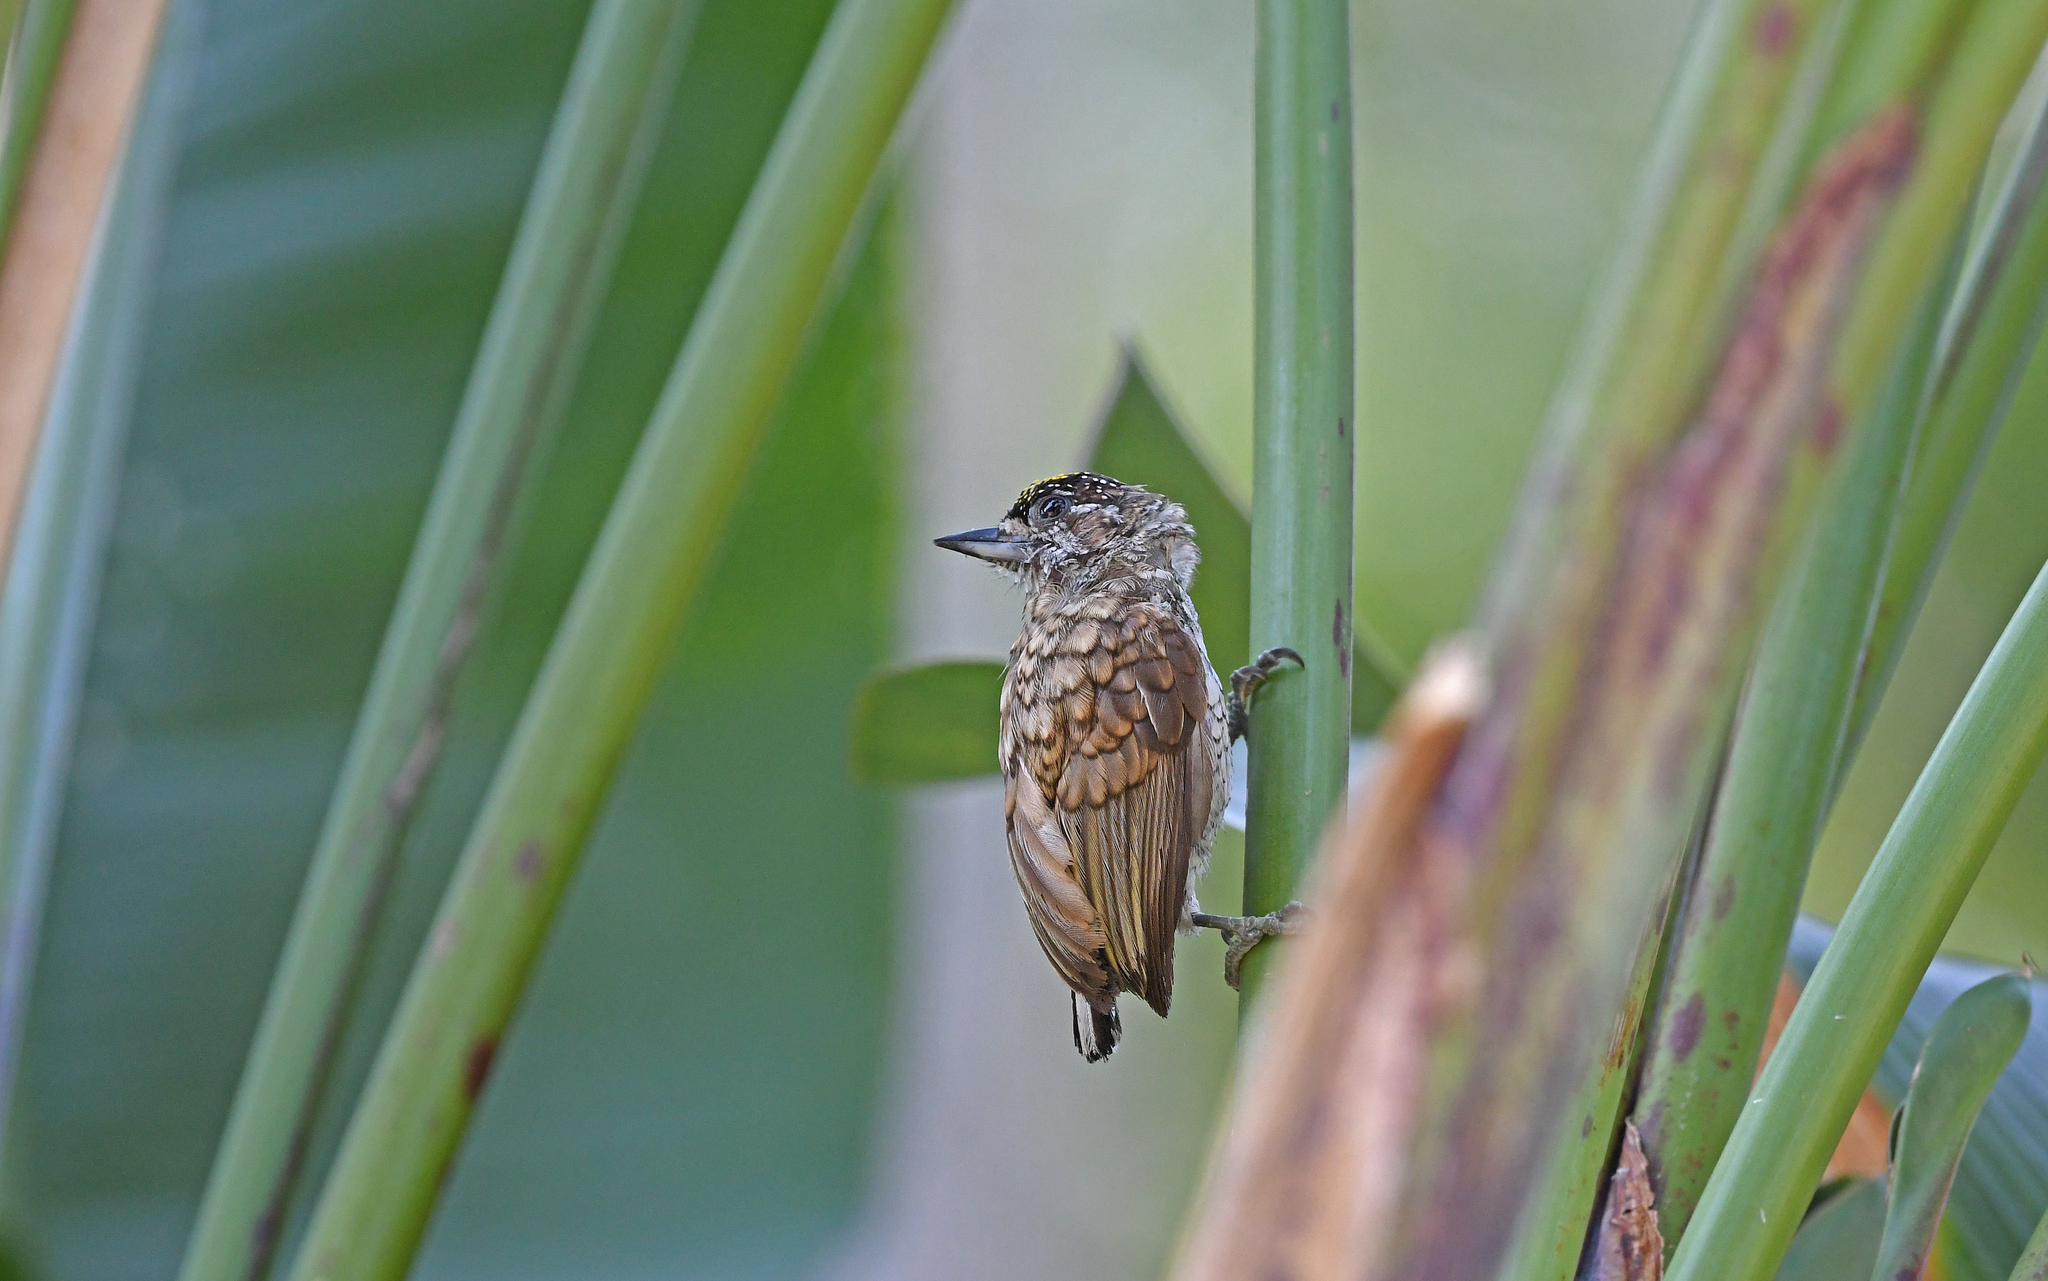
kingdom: Animalia
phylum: Chordata
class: Aves
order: Piciformes
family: Picidae
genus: Picumnus
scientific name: Picumnus squamulatus
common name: Scaled piculet
